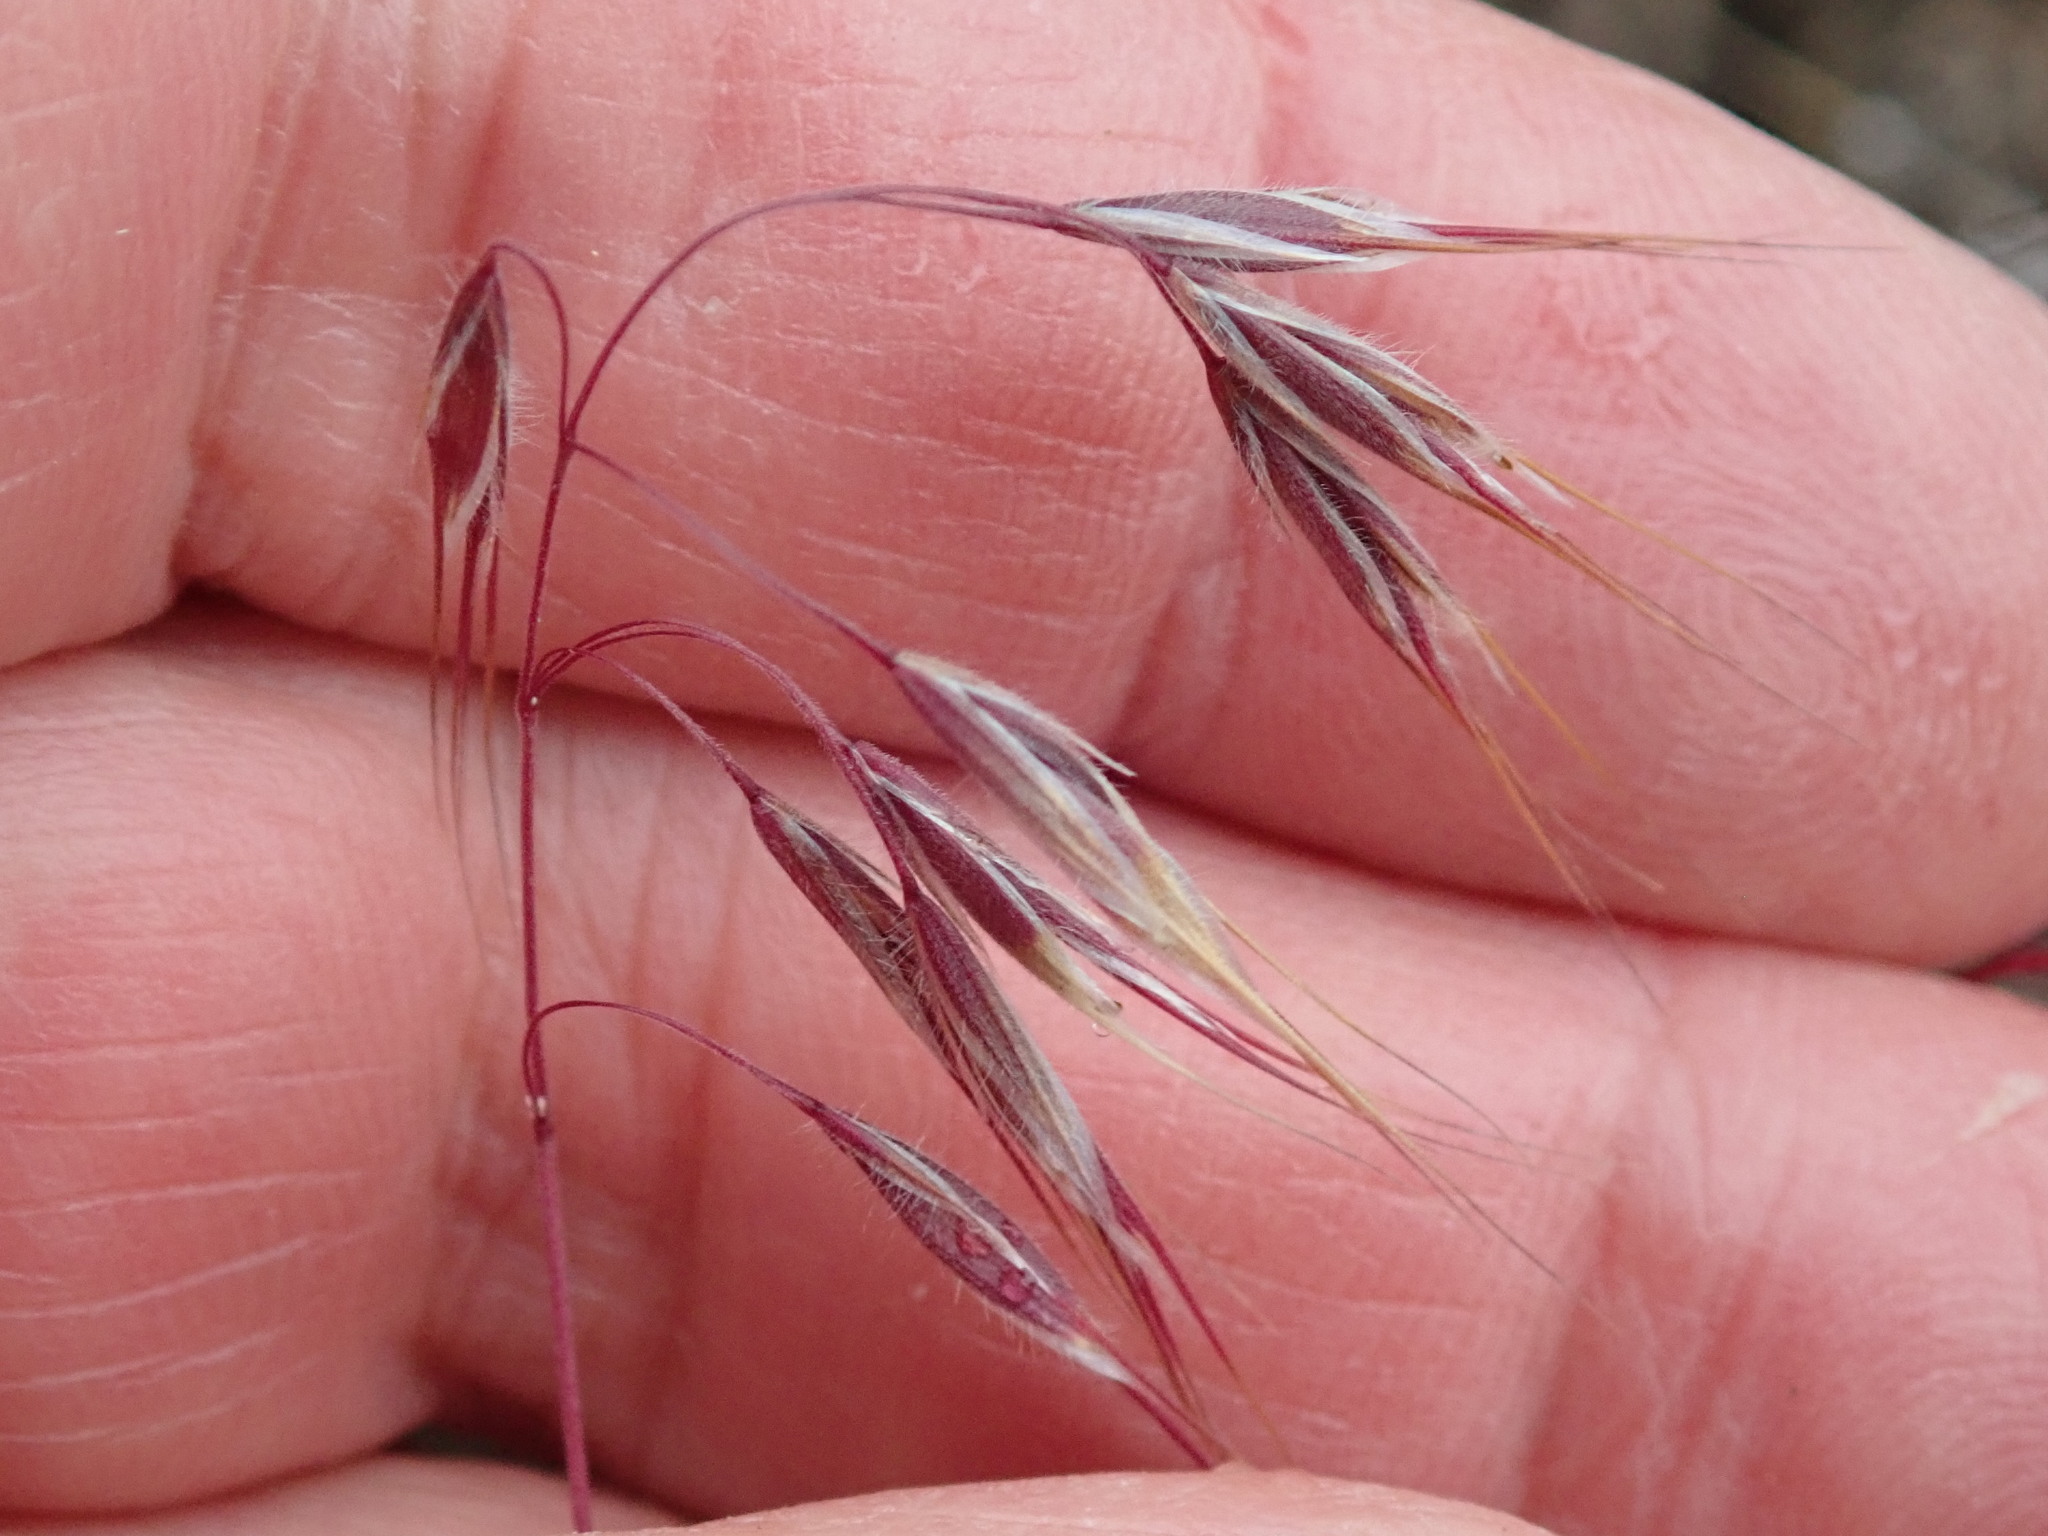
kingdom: Plantae
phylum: Tracheophyta
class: Liliopsida
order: Poales
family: Poaceae
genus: Bromus
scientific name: Bromus tectorum
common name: Cheatgrass
